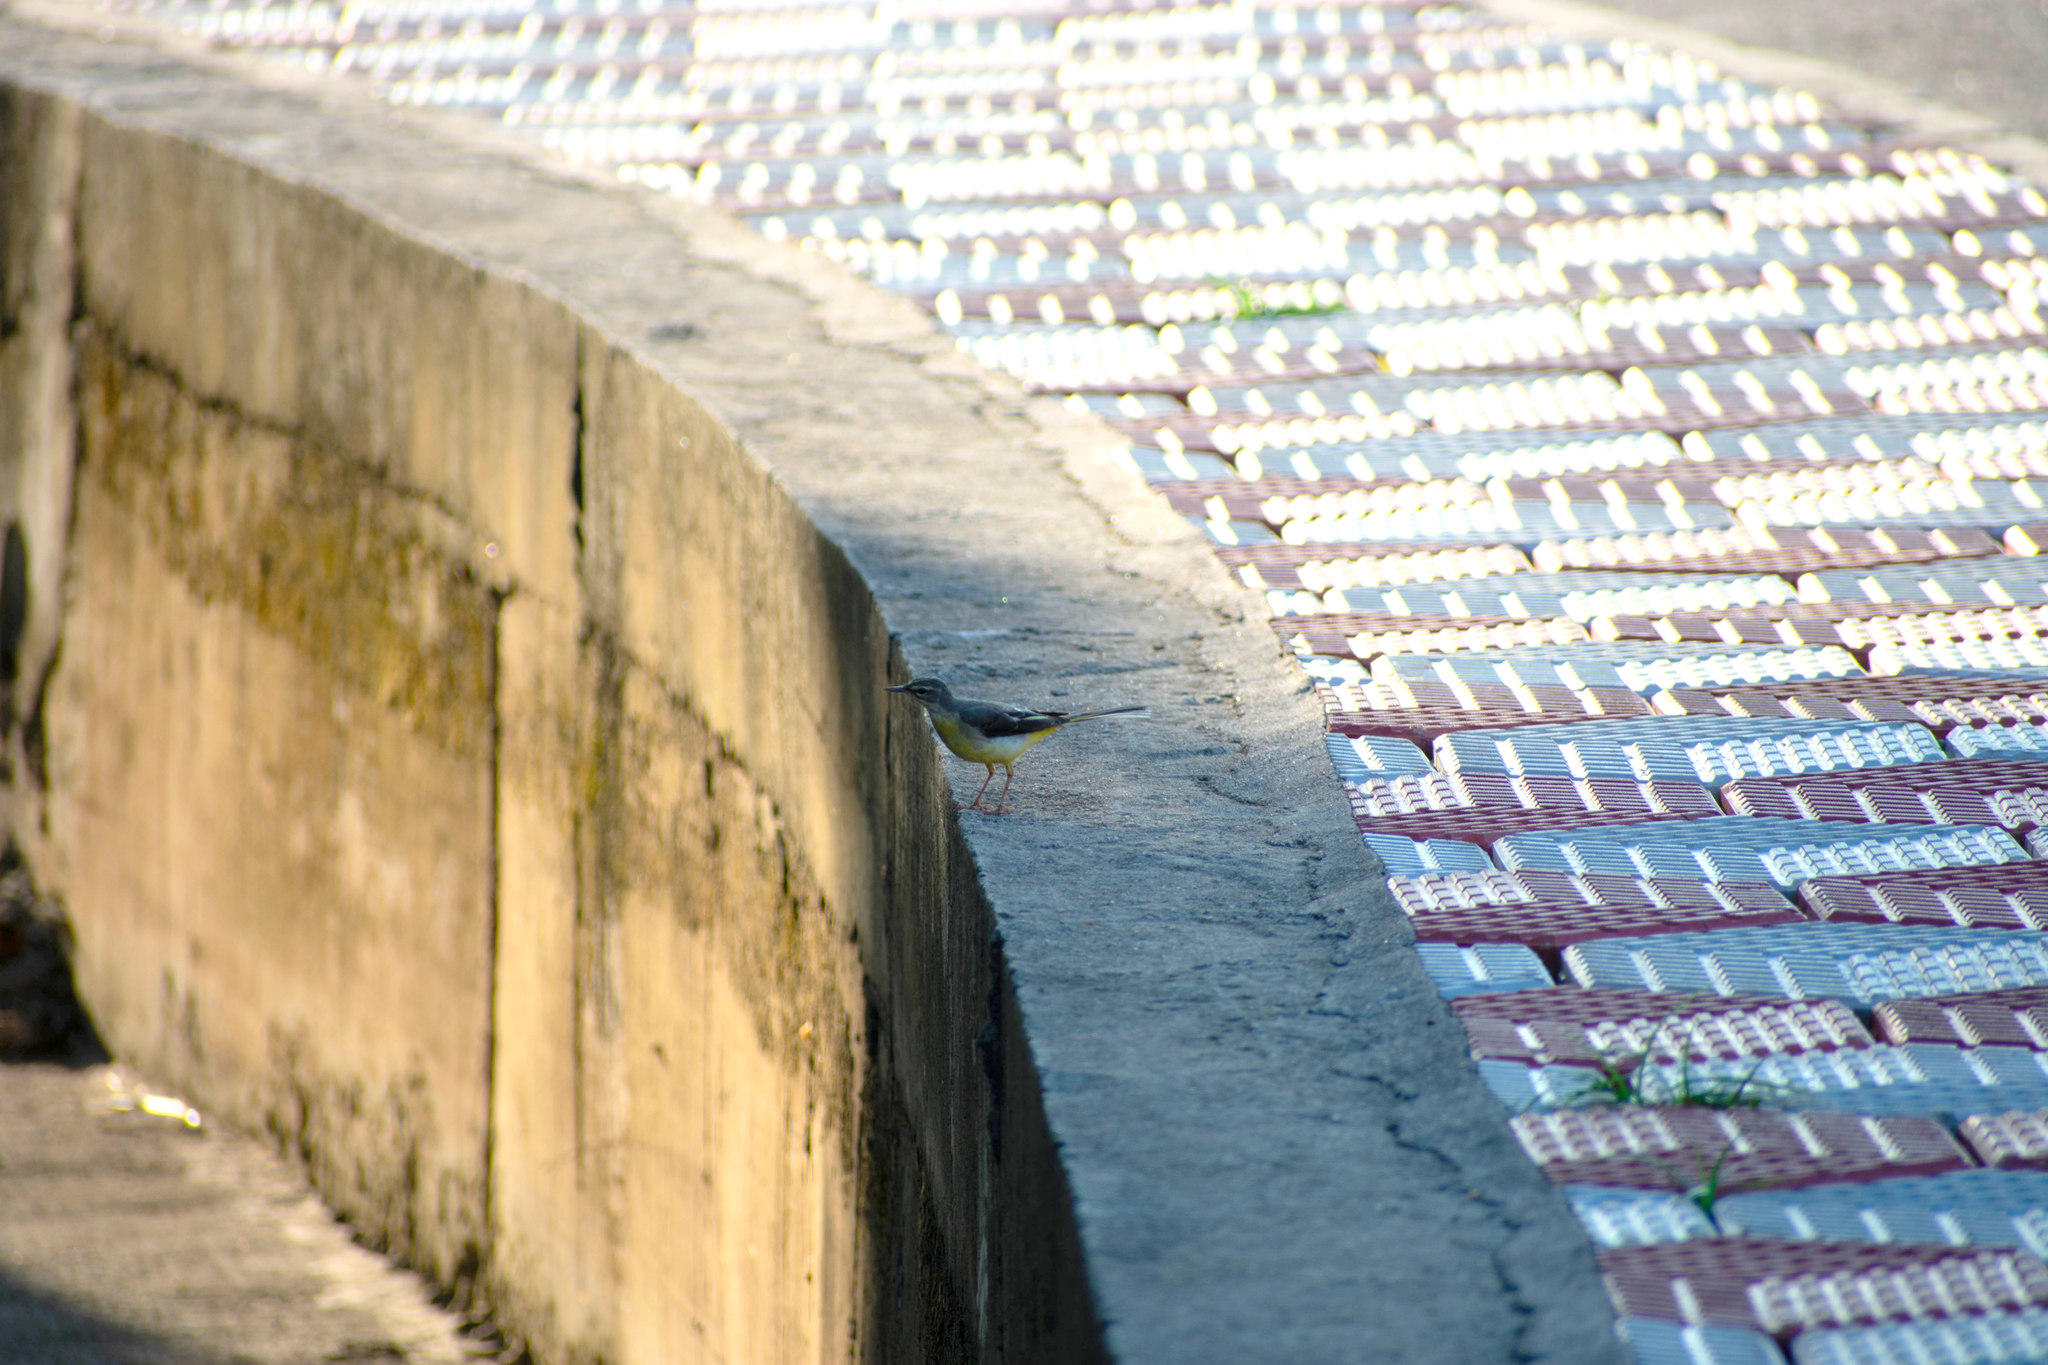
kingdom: Animalia
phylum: Chordata
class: Aves
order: Passeriformes
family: Motacillidae
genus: Motacilla
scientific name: Motacilla cinerea
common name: Grey wagtail
